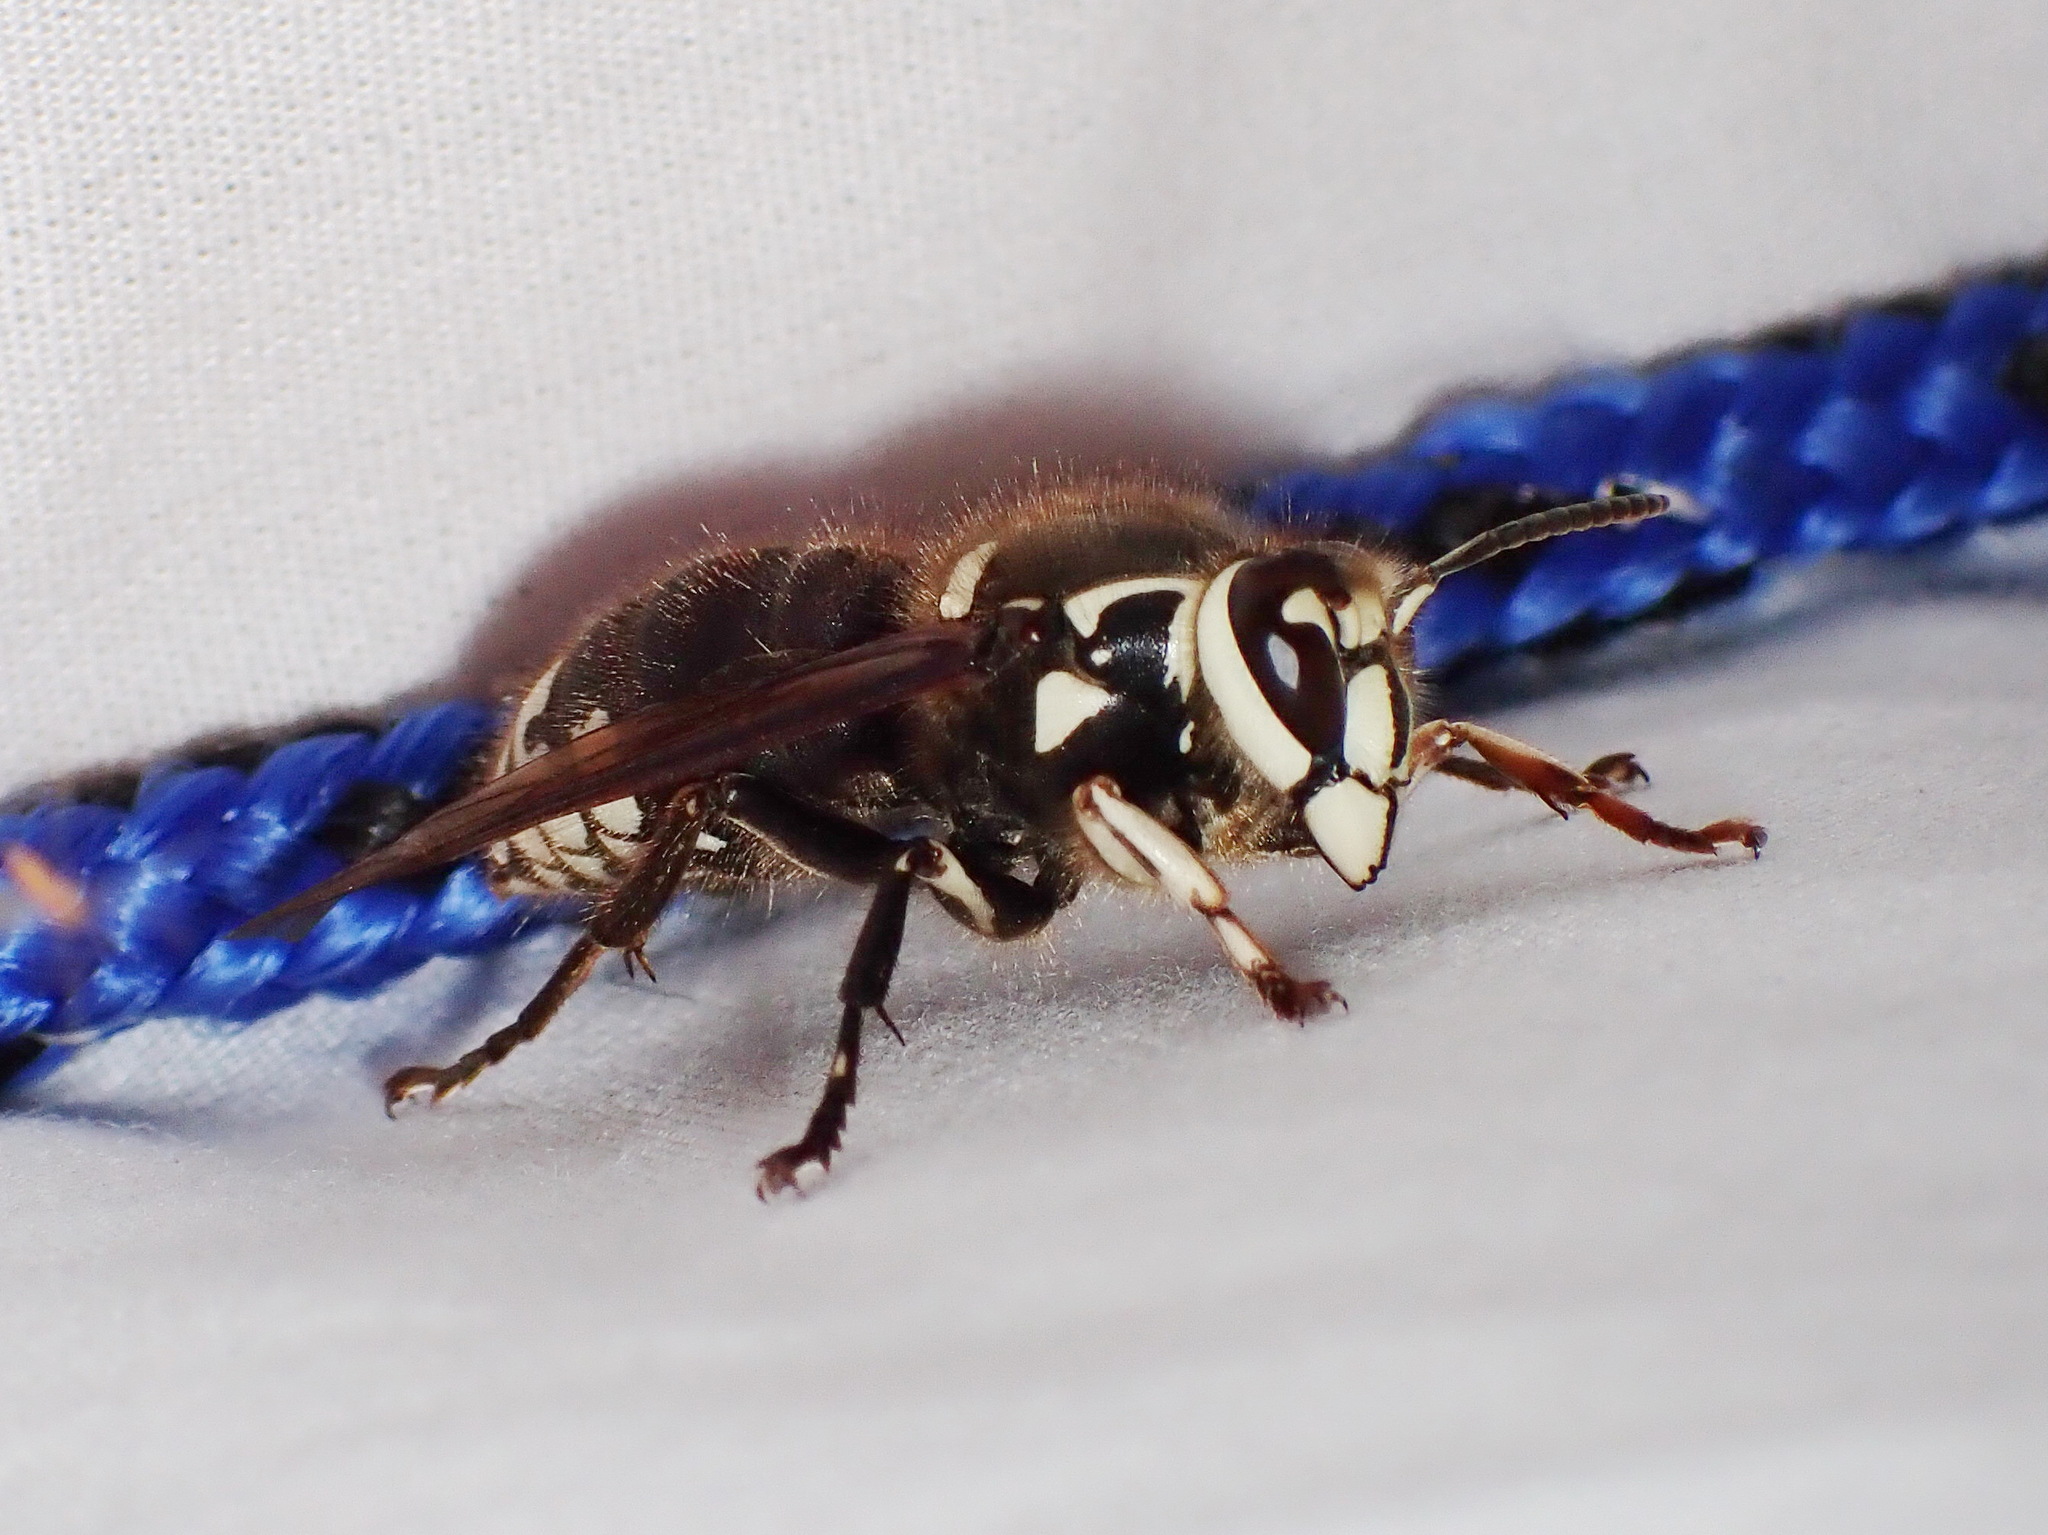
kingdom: Animalia
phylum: Arthropoda
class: Insecta
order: Hymenoptera
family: Vespidae
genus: Dolichovespula
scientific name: Dolichovespula maculata
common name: Bald-faced hornet
